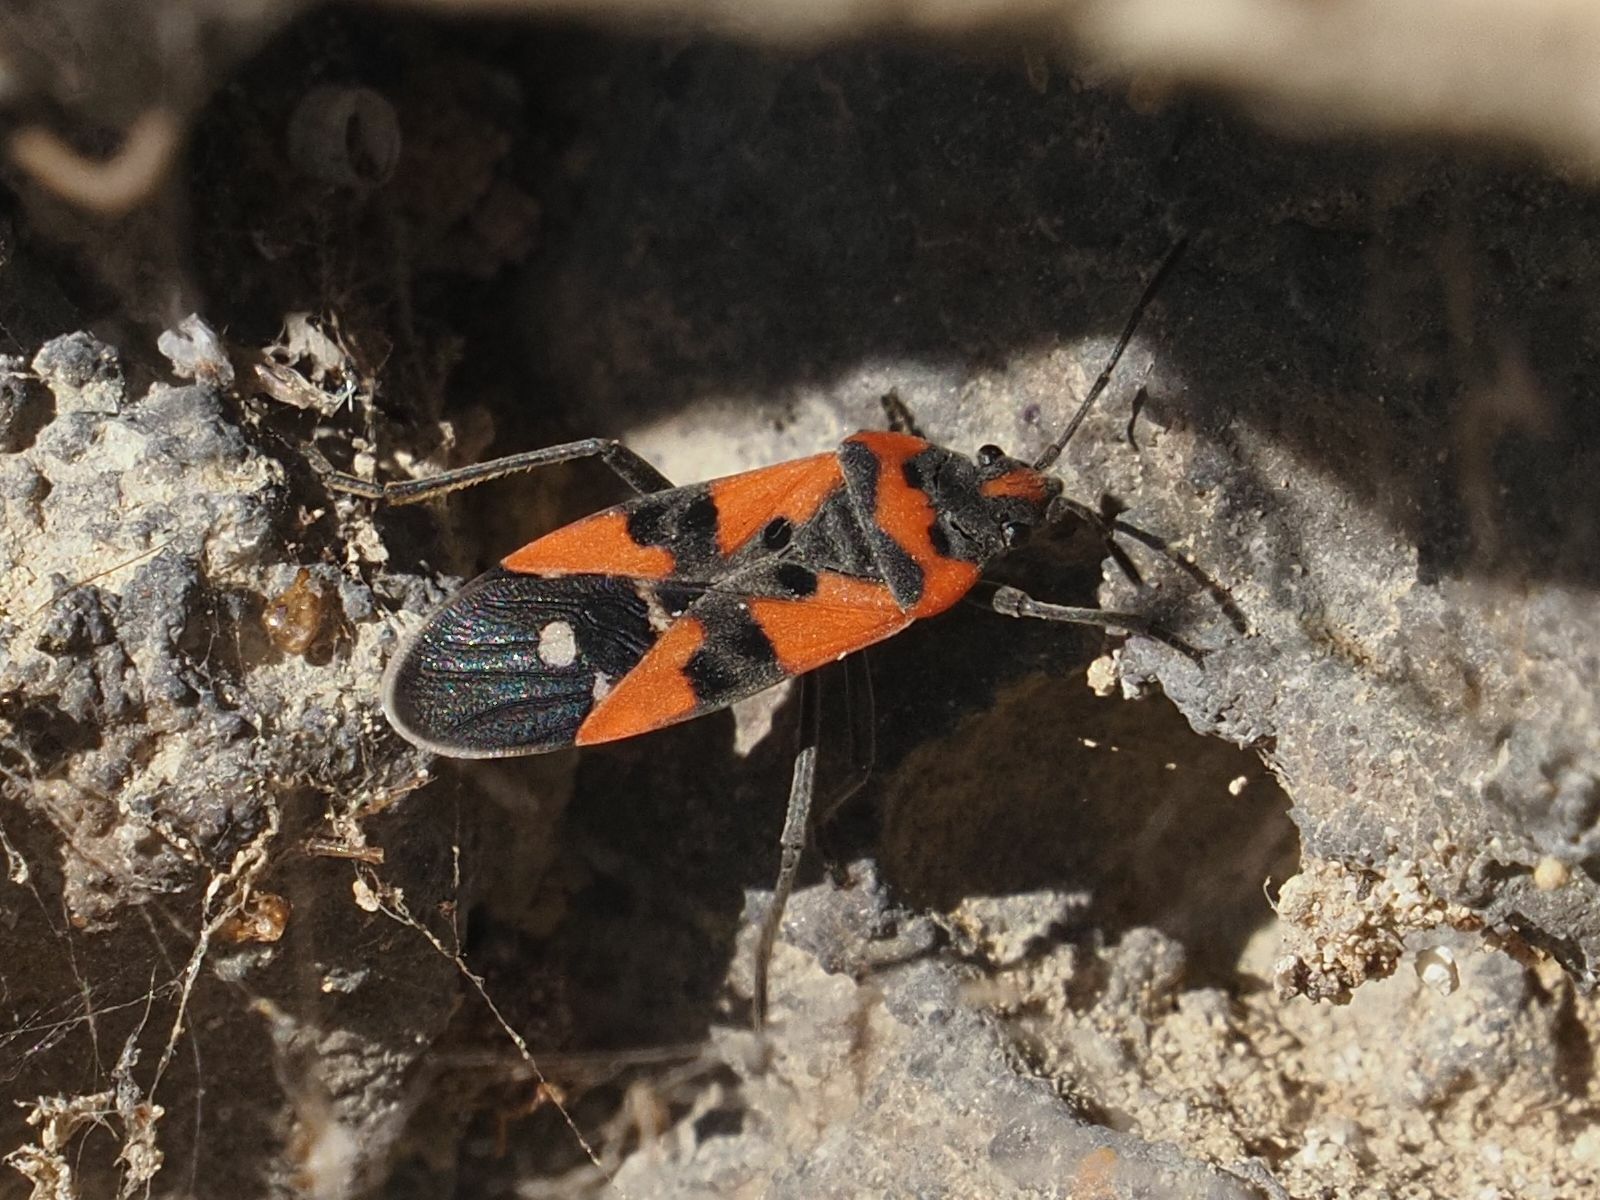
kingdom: Animalia
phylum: Arthropoda
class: Insecta
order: Hemiptera
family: Lygaeidae
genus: Lygaeus
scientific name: Lygaeus equestris
